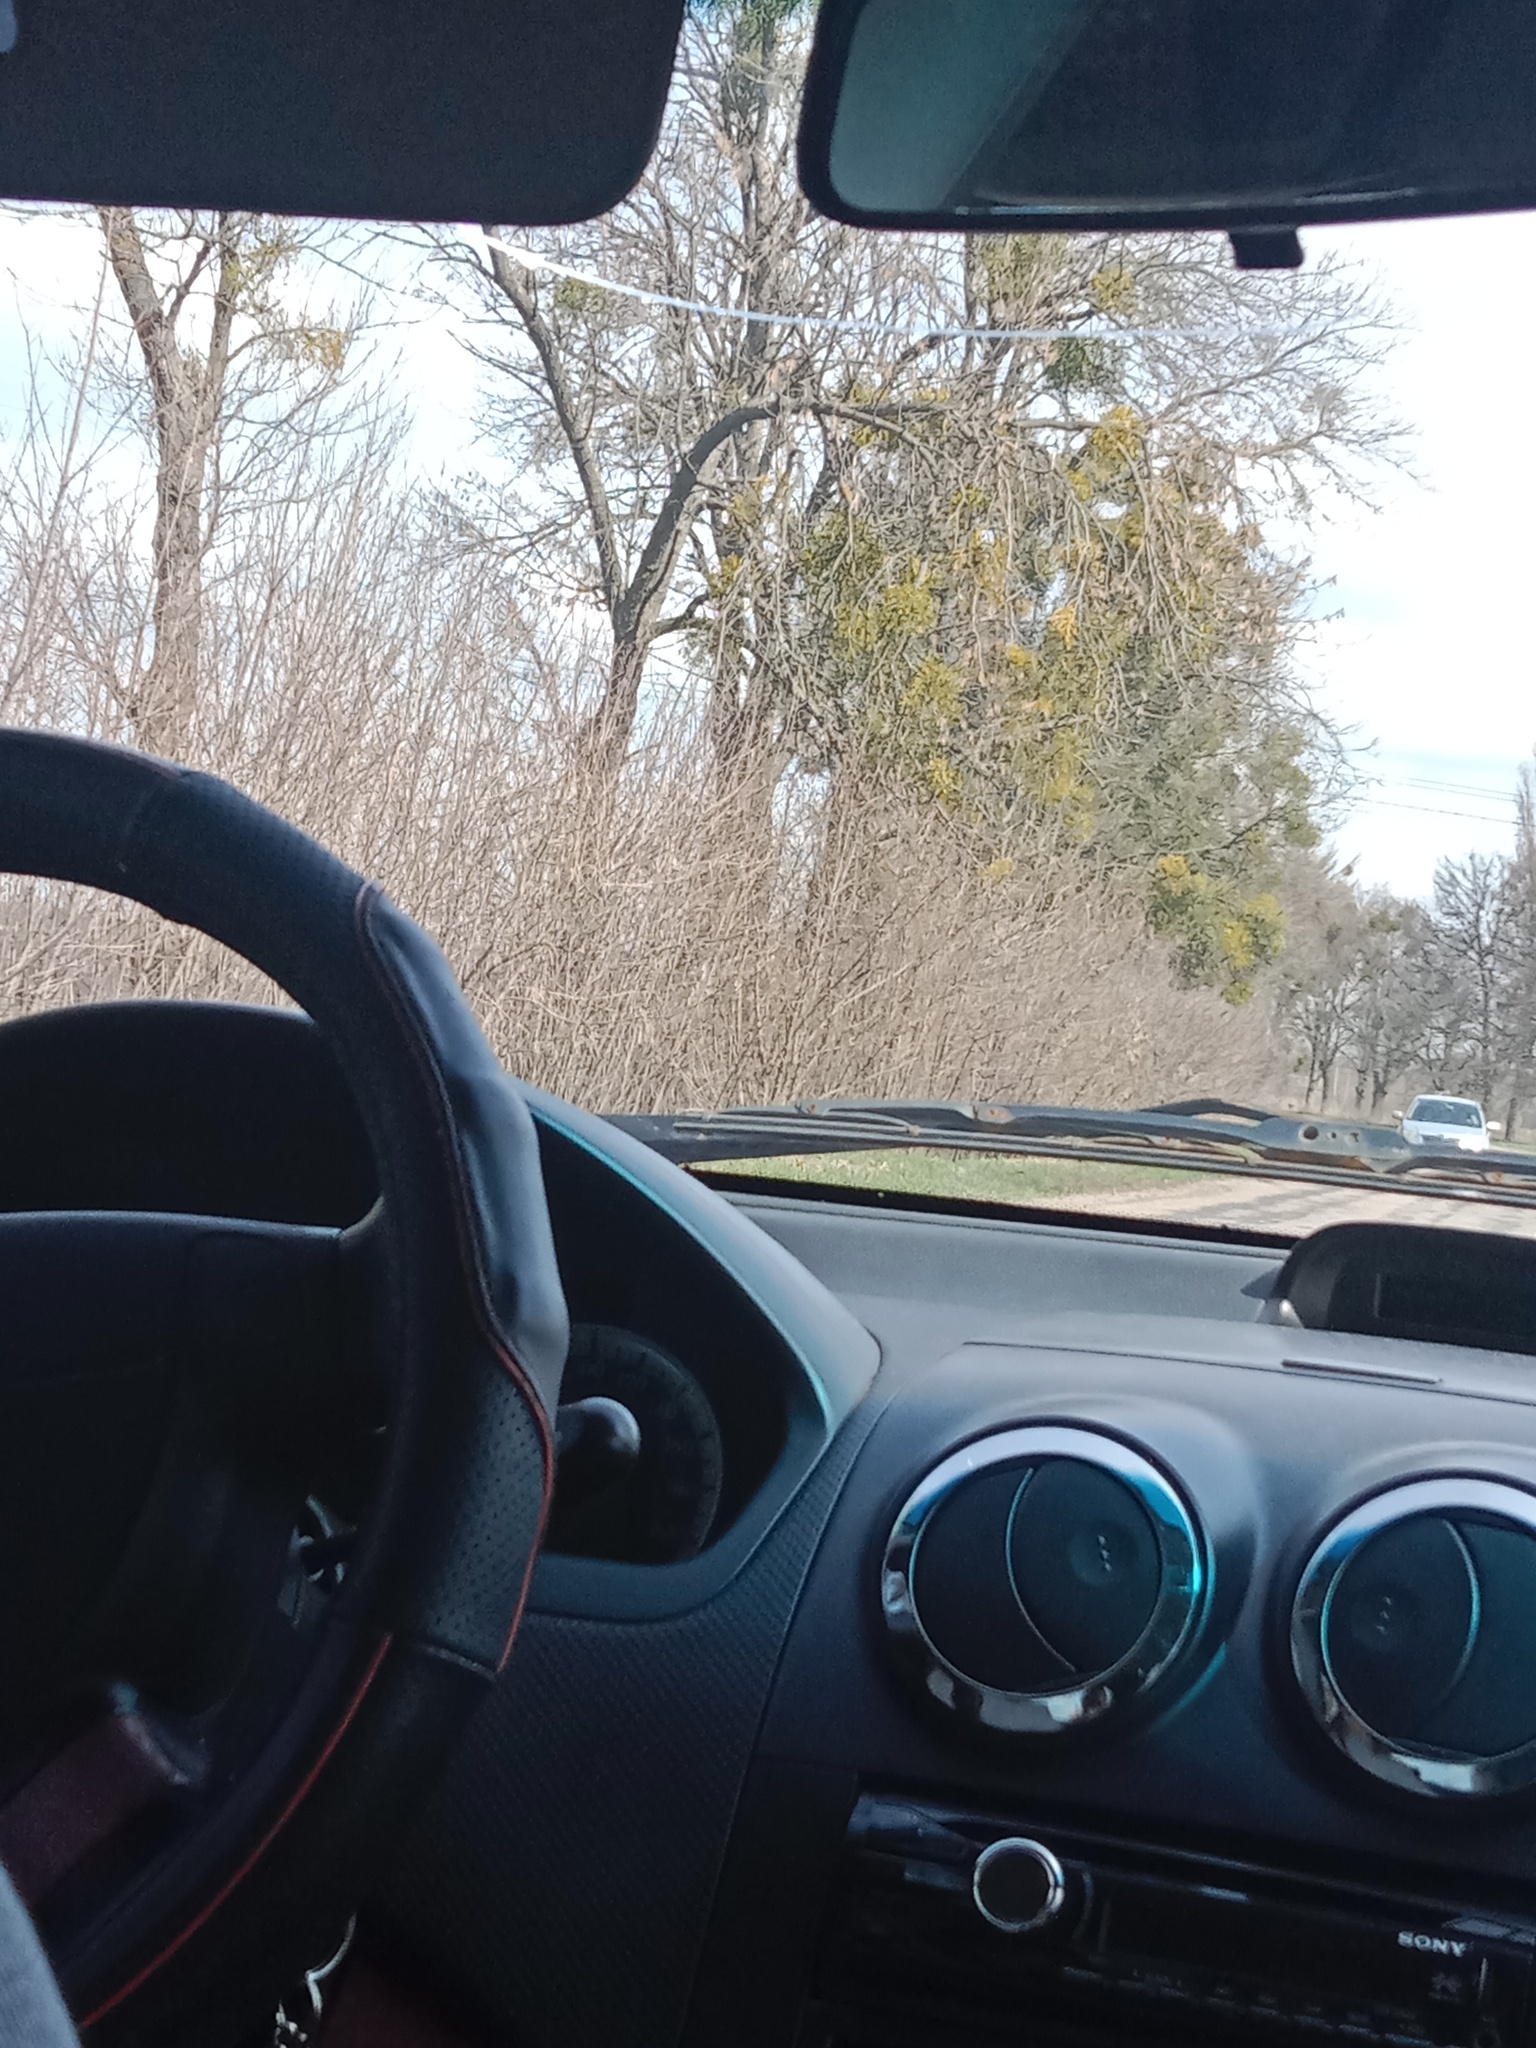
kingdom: Plantae
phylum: Tracheophyta
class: Magnoliopsida
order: Santalales
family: Viscaceae
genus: Viscum
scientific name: Viscum album
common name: Mistletoe
